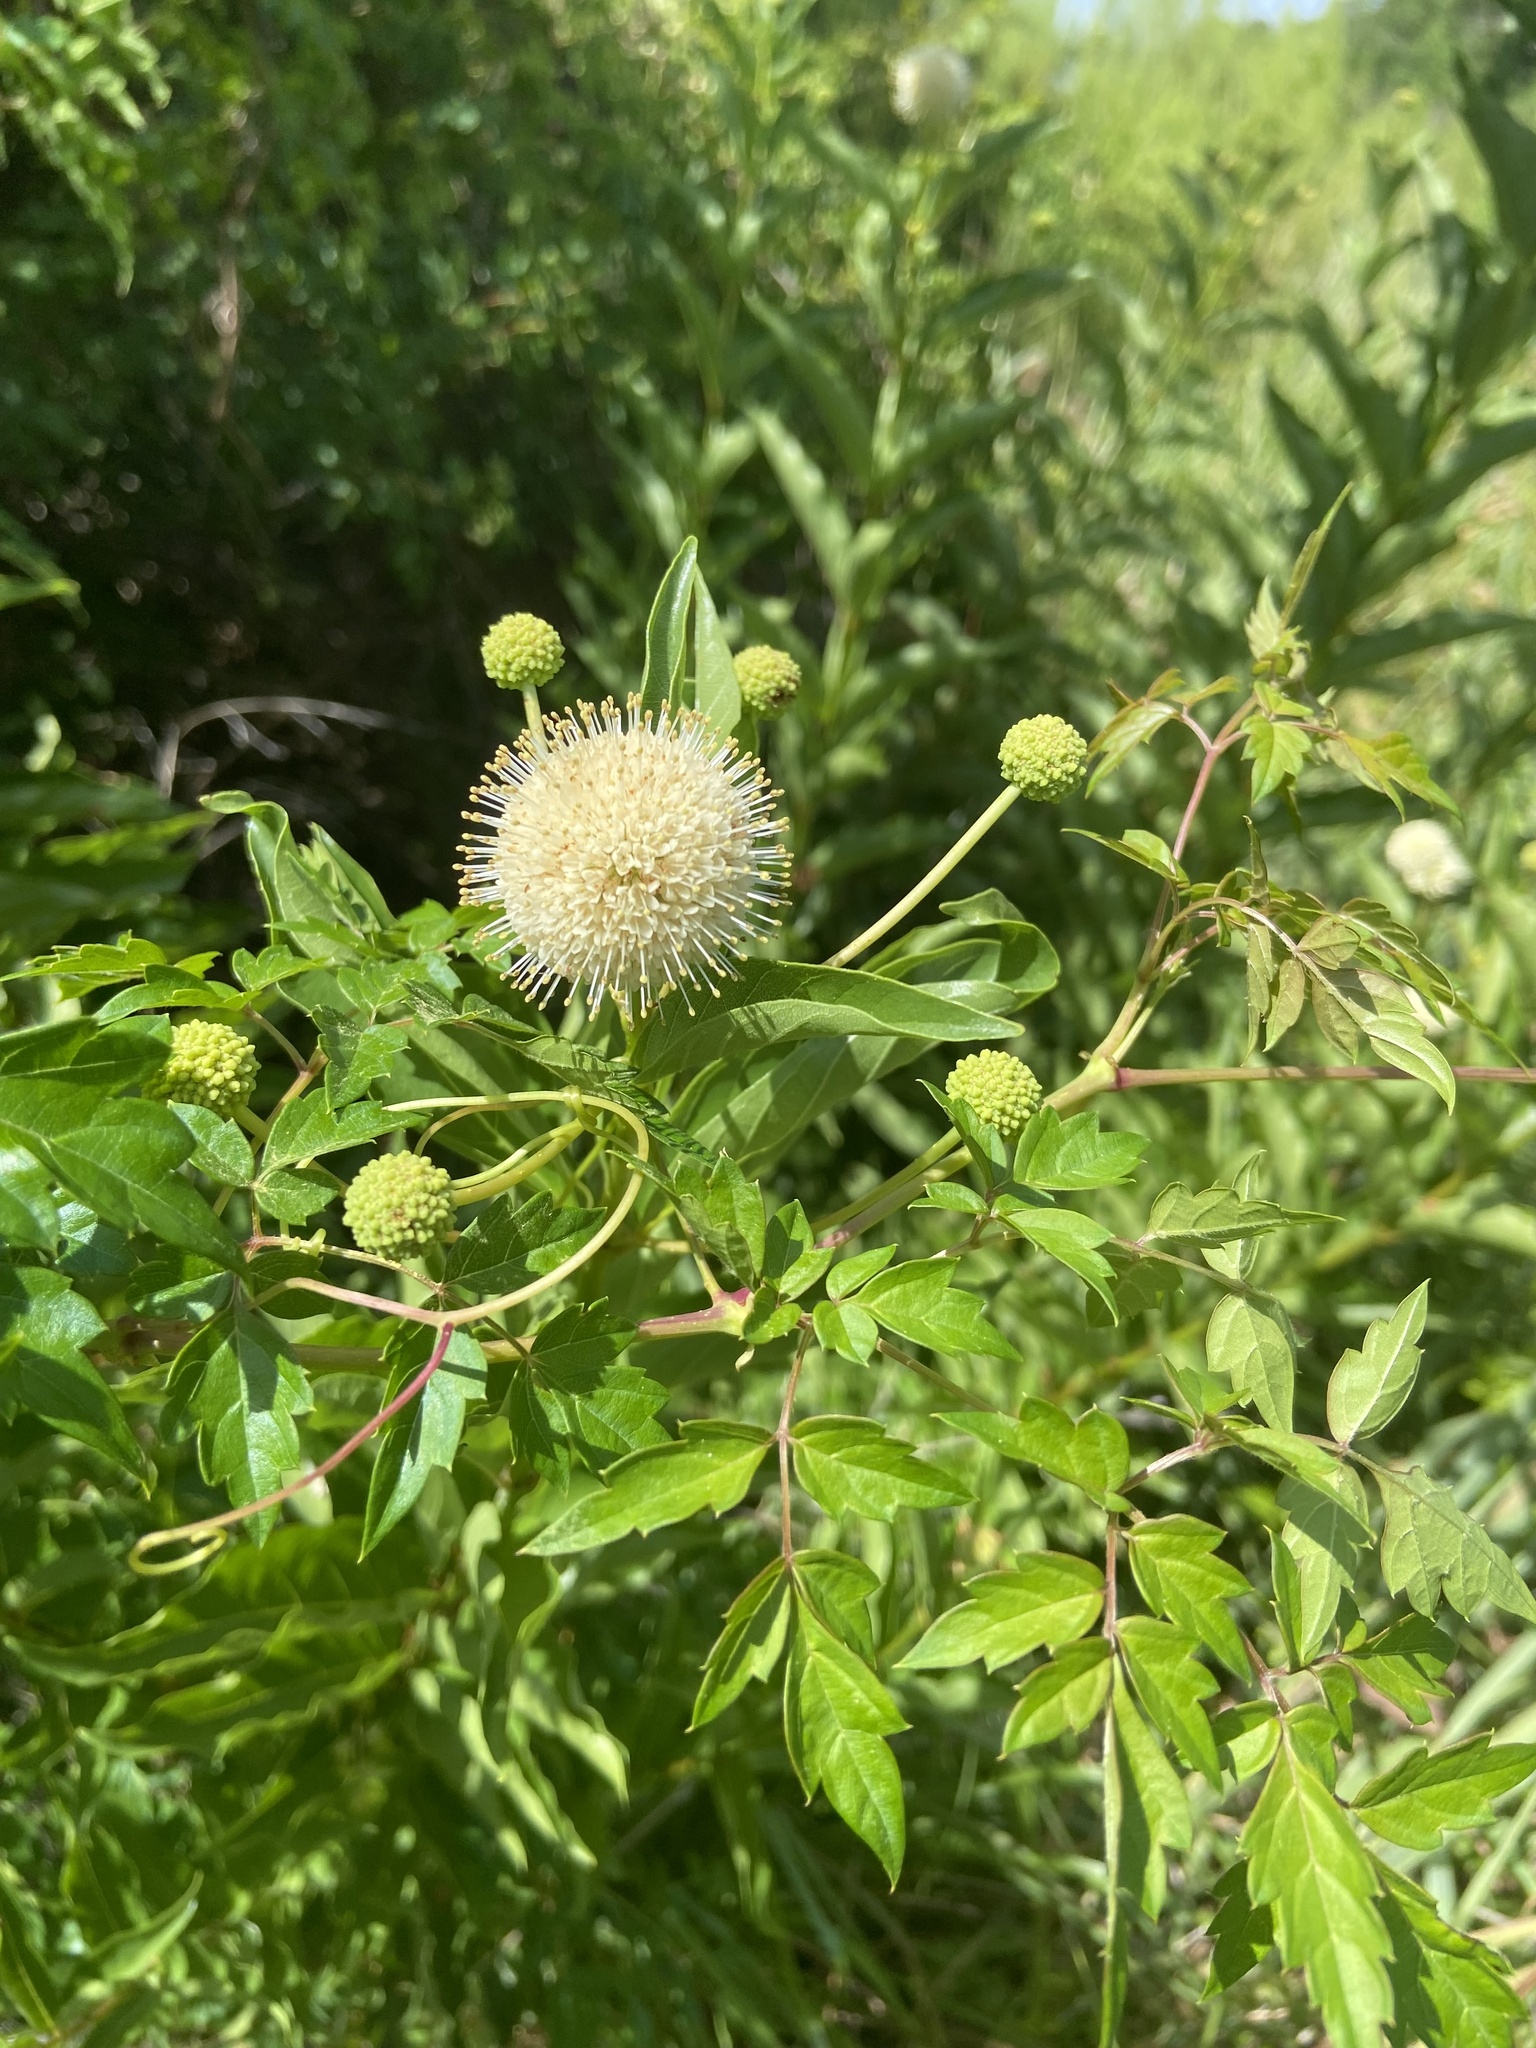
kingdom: Plantae
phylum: Tracheophyta
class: Magnoliopsida
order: Gentianales
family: Rubiaceae
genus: Cephalanthus
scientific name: Cephalanthus occidentalis
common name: Button-willow
